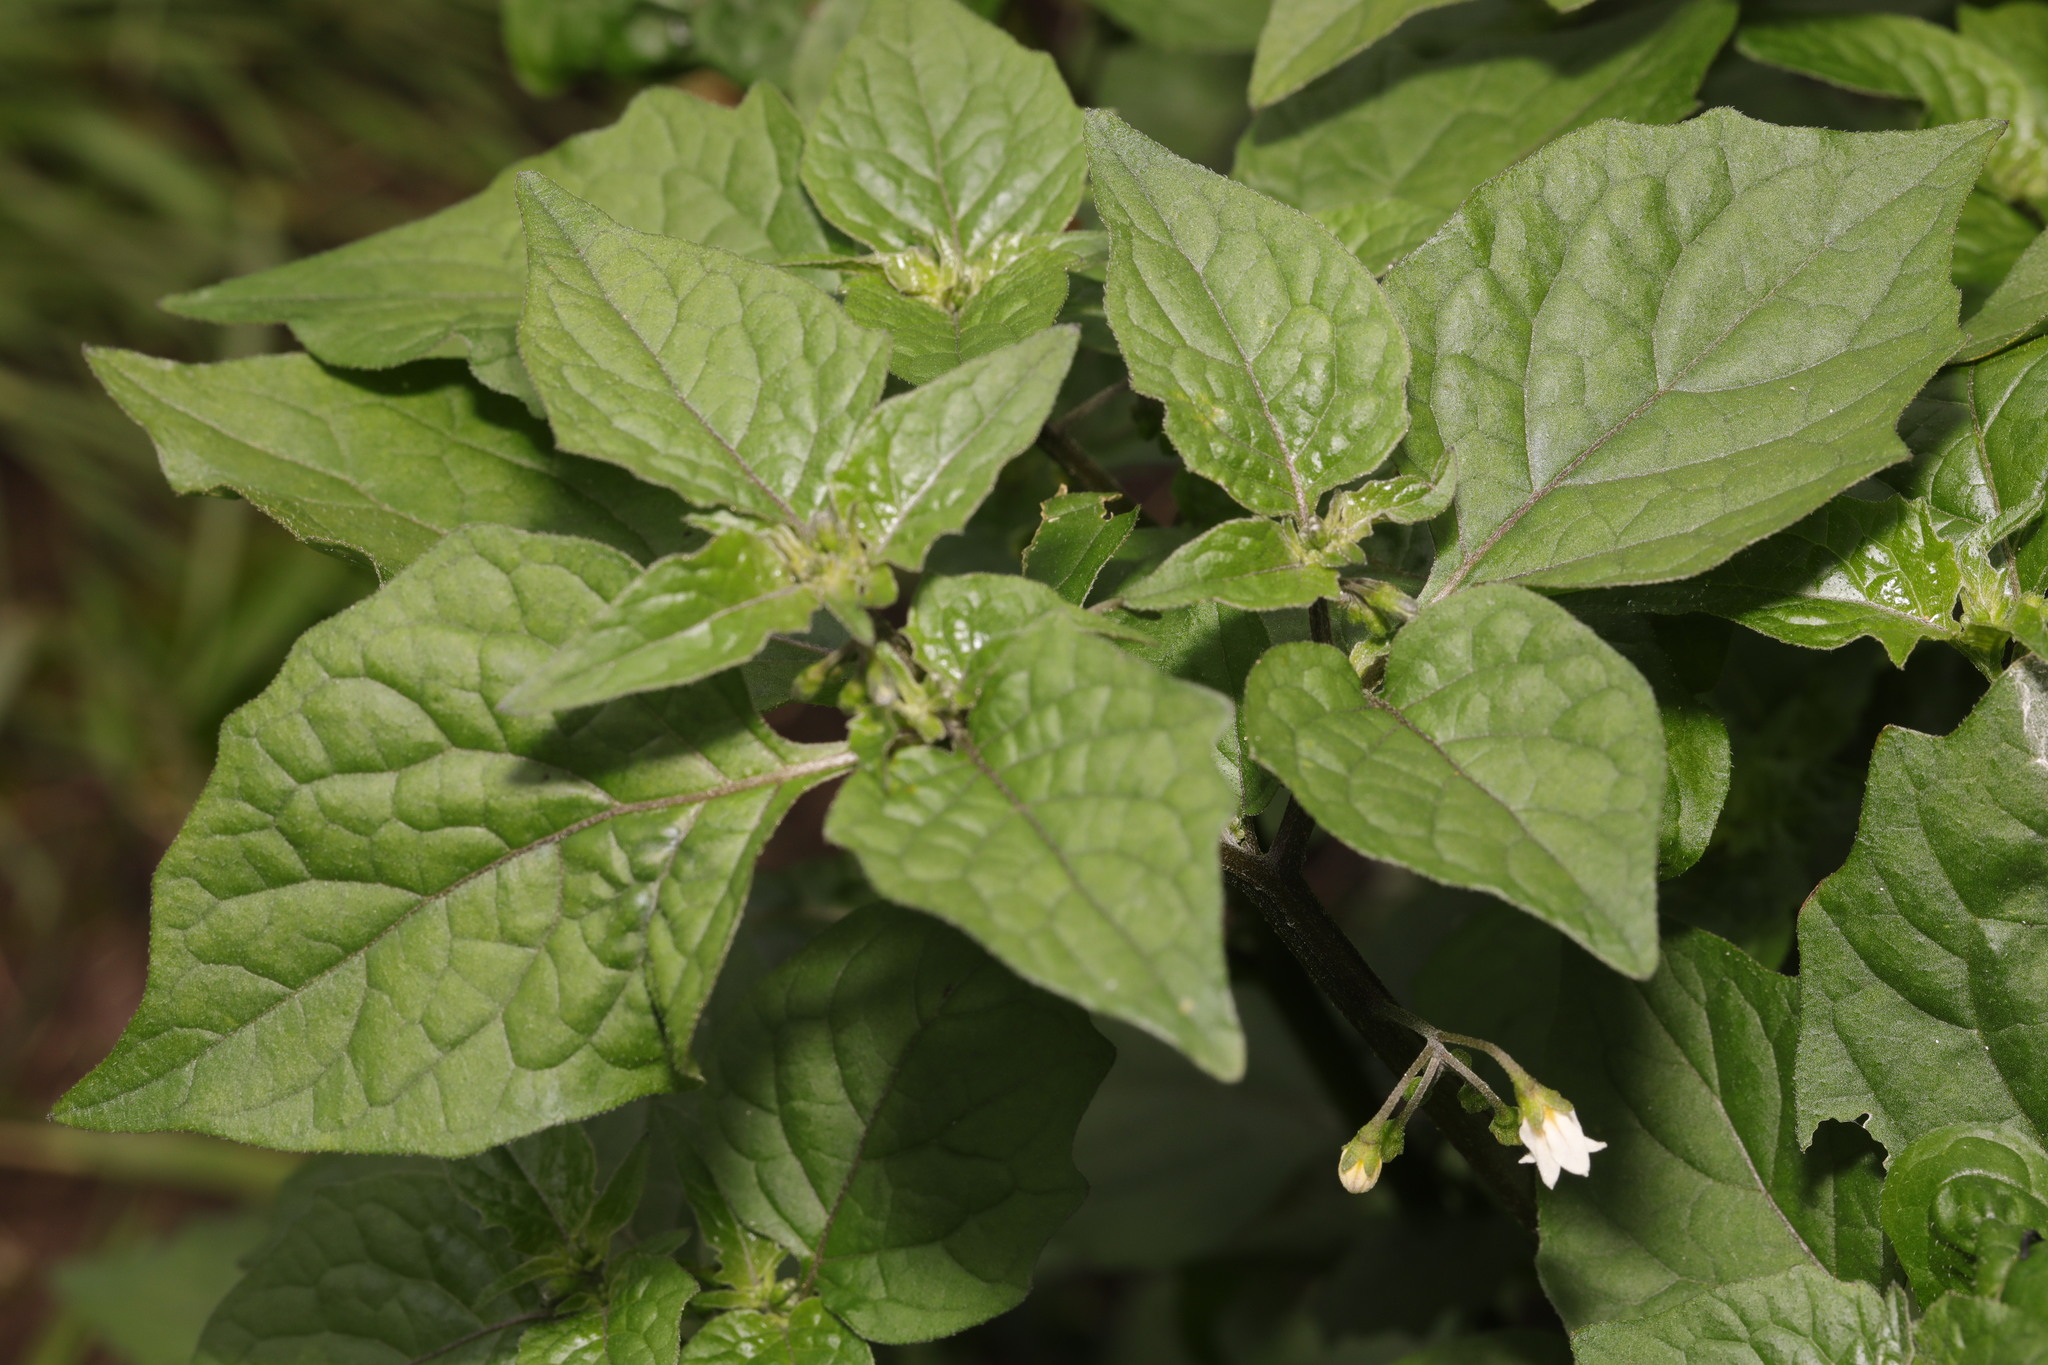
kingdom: Plantae
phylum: Tracheophyta
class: Magnoliopsida
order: Solanales
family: Solanaceae
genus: Solanum
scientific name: Solanum nigrum
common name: Black nightshade
